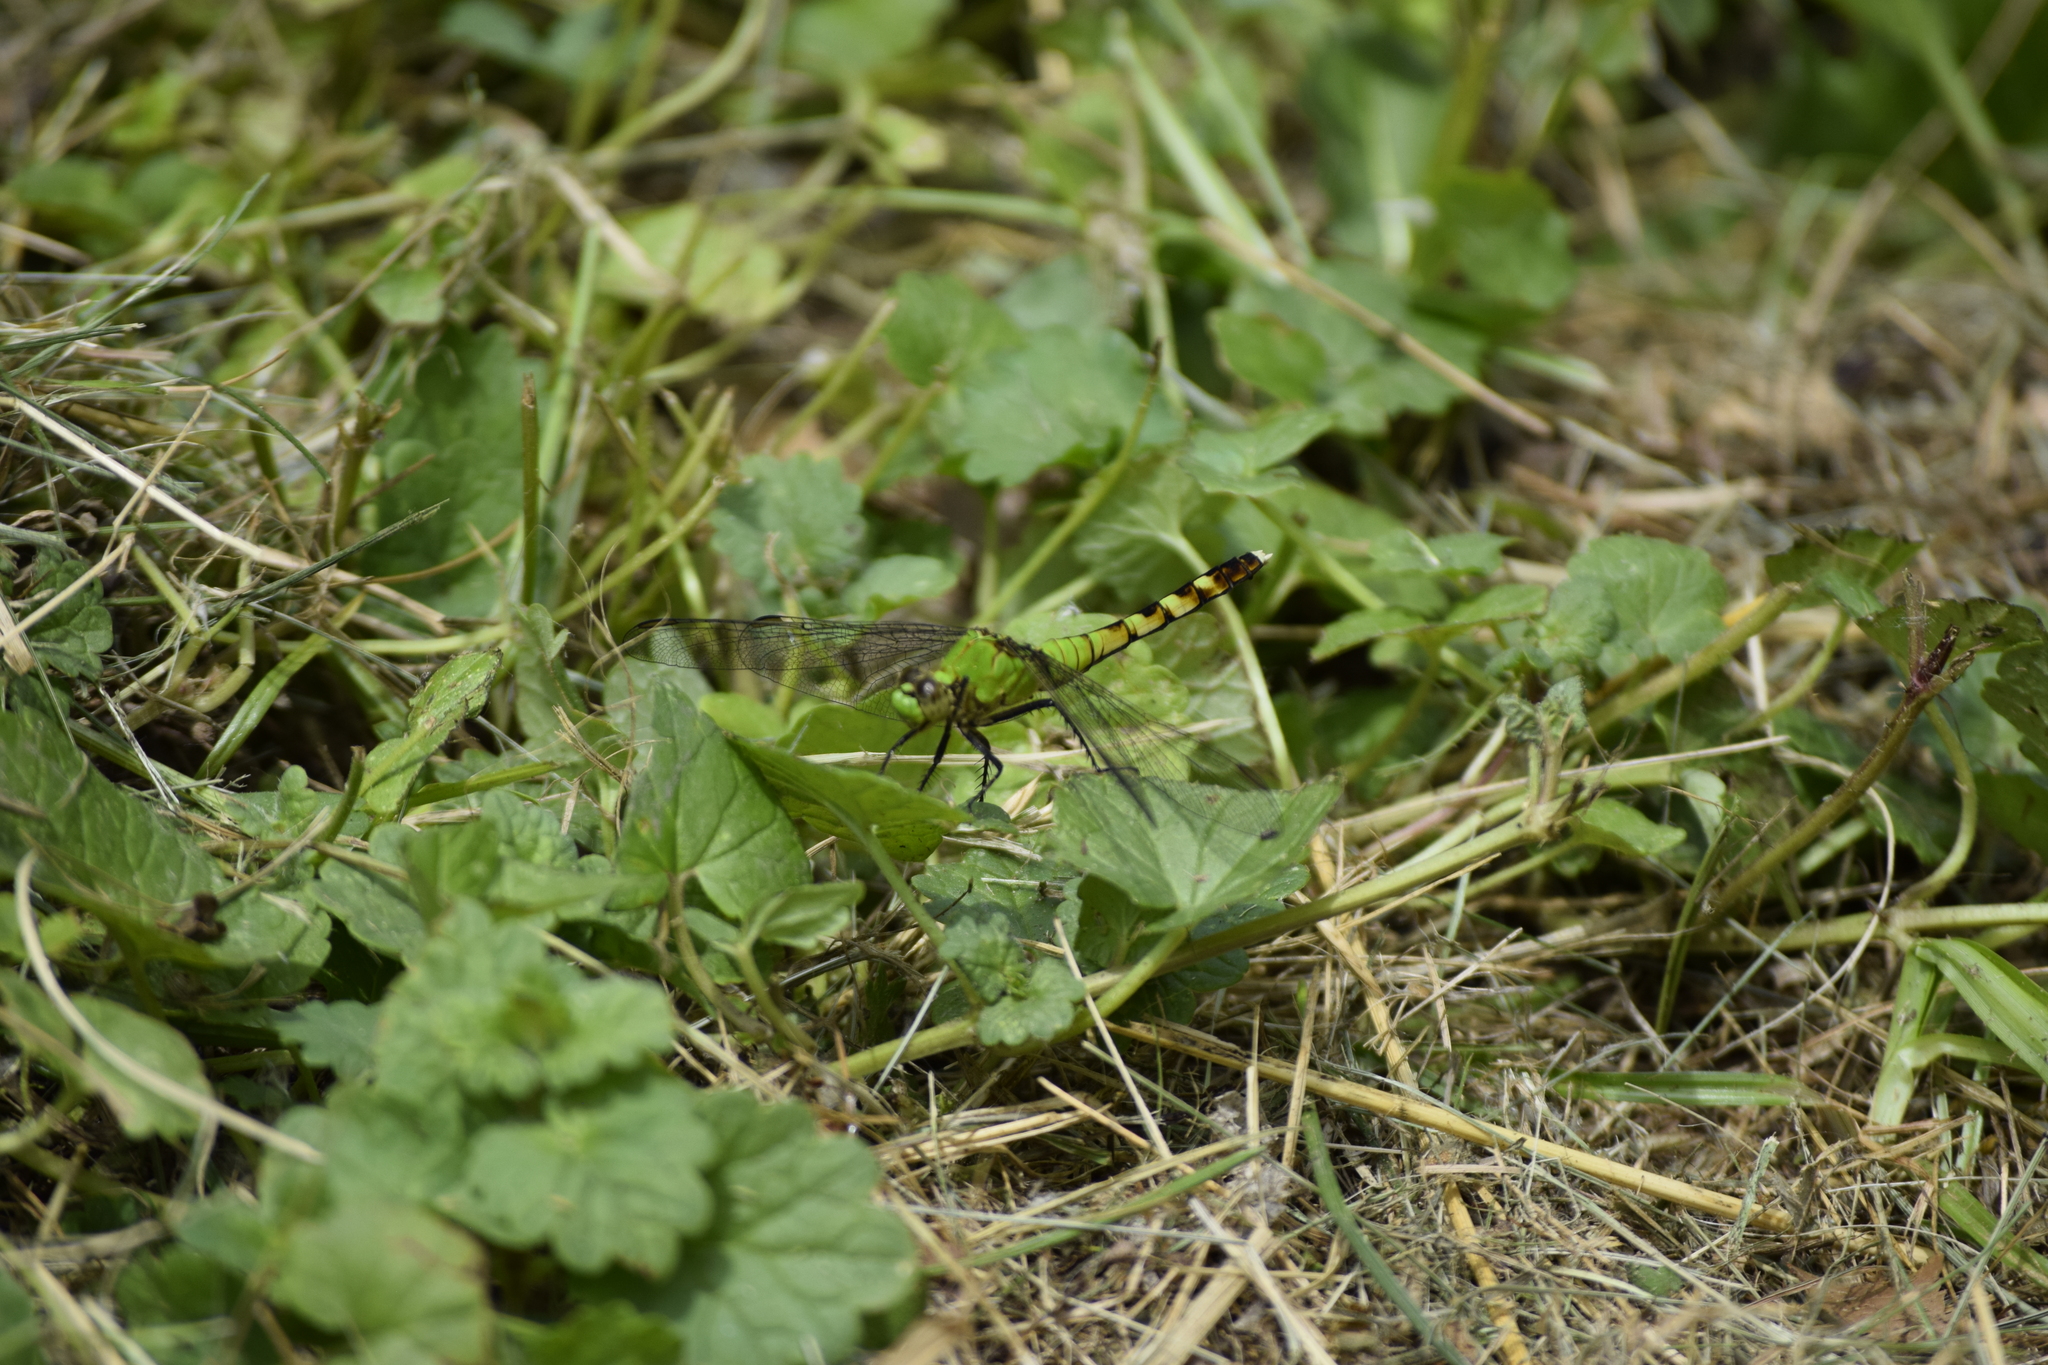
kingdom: Animalia
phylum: Arthropoda
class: Insecta
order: Odonata
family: Libellulidae
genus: Erythemis
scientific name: Erythemis simplicicollis
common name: Eastern pondhawk
